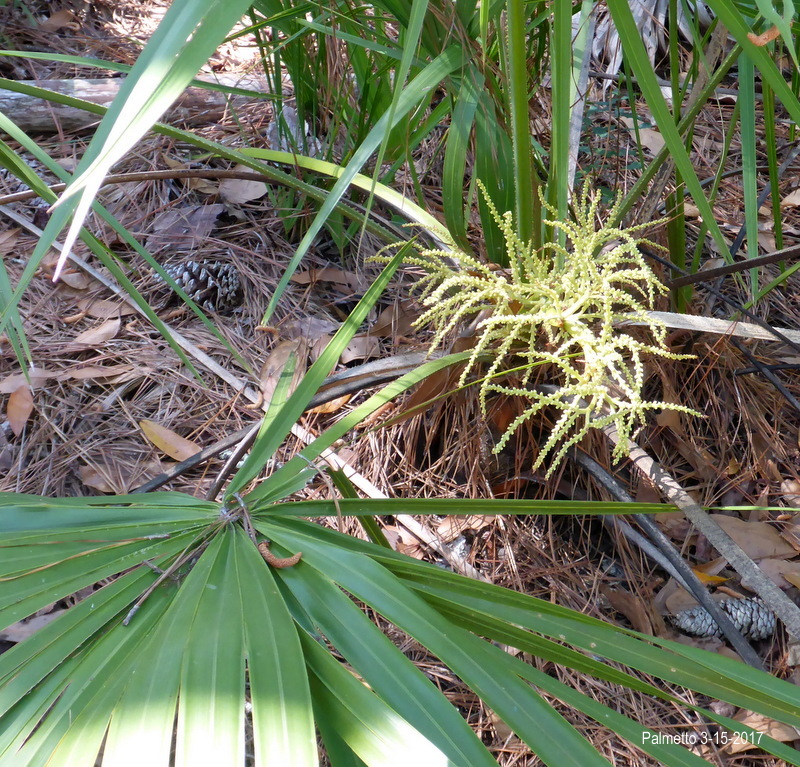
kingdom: Plantae
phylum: Tracheophyta
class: Liliopsida
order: Arecales
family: Arecaceae
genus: Serenoa
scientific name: Serenoa repens
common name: Saw-palmetto
